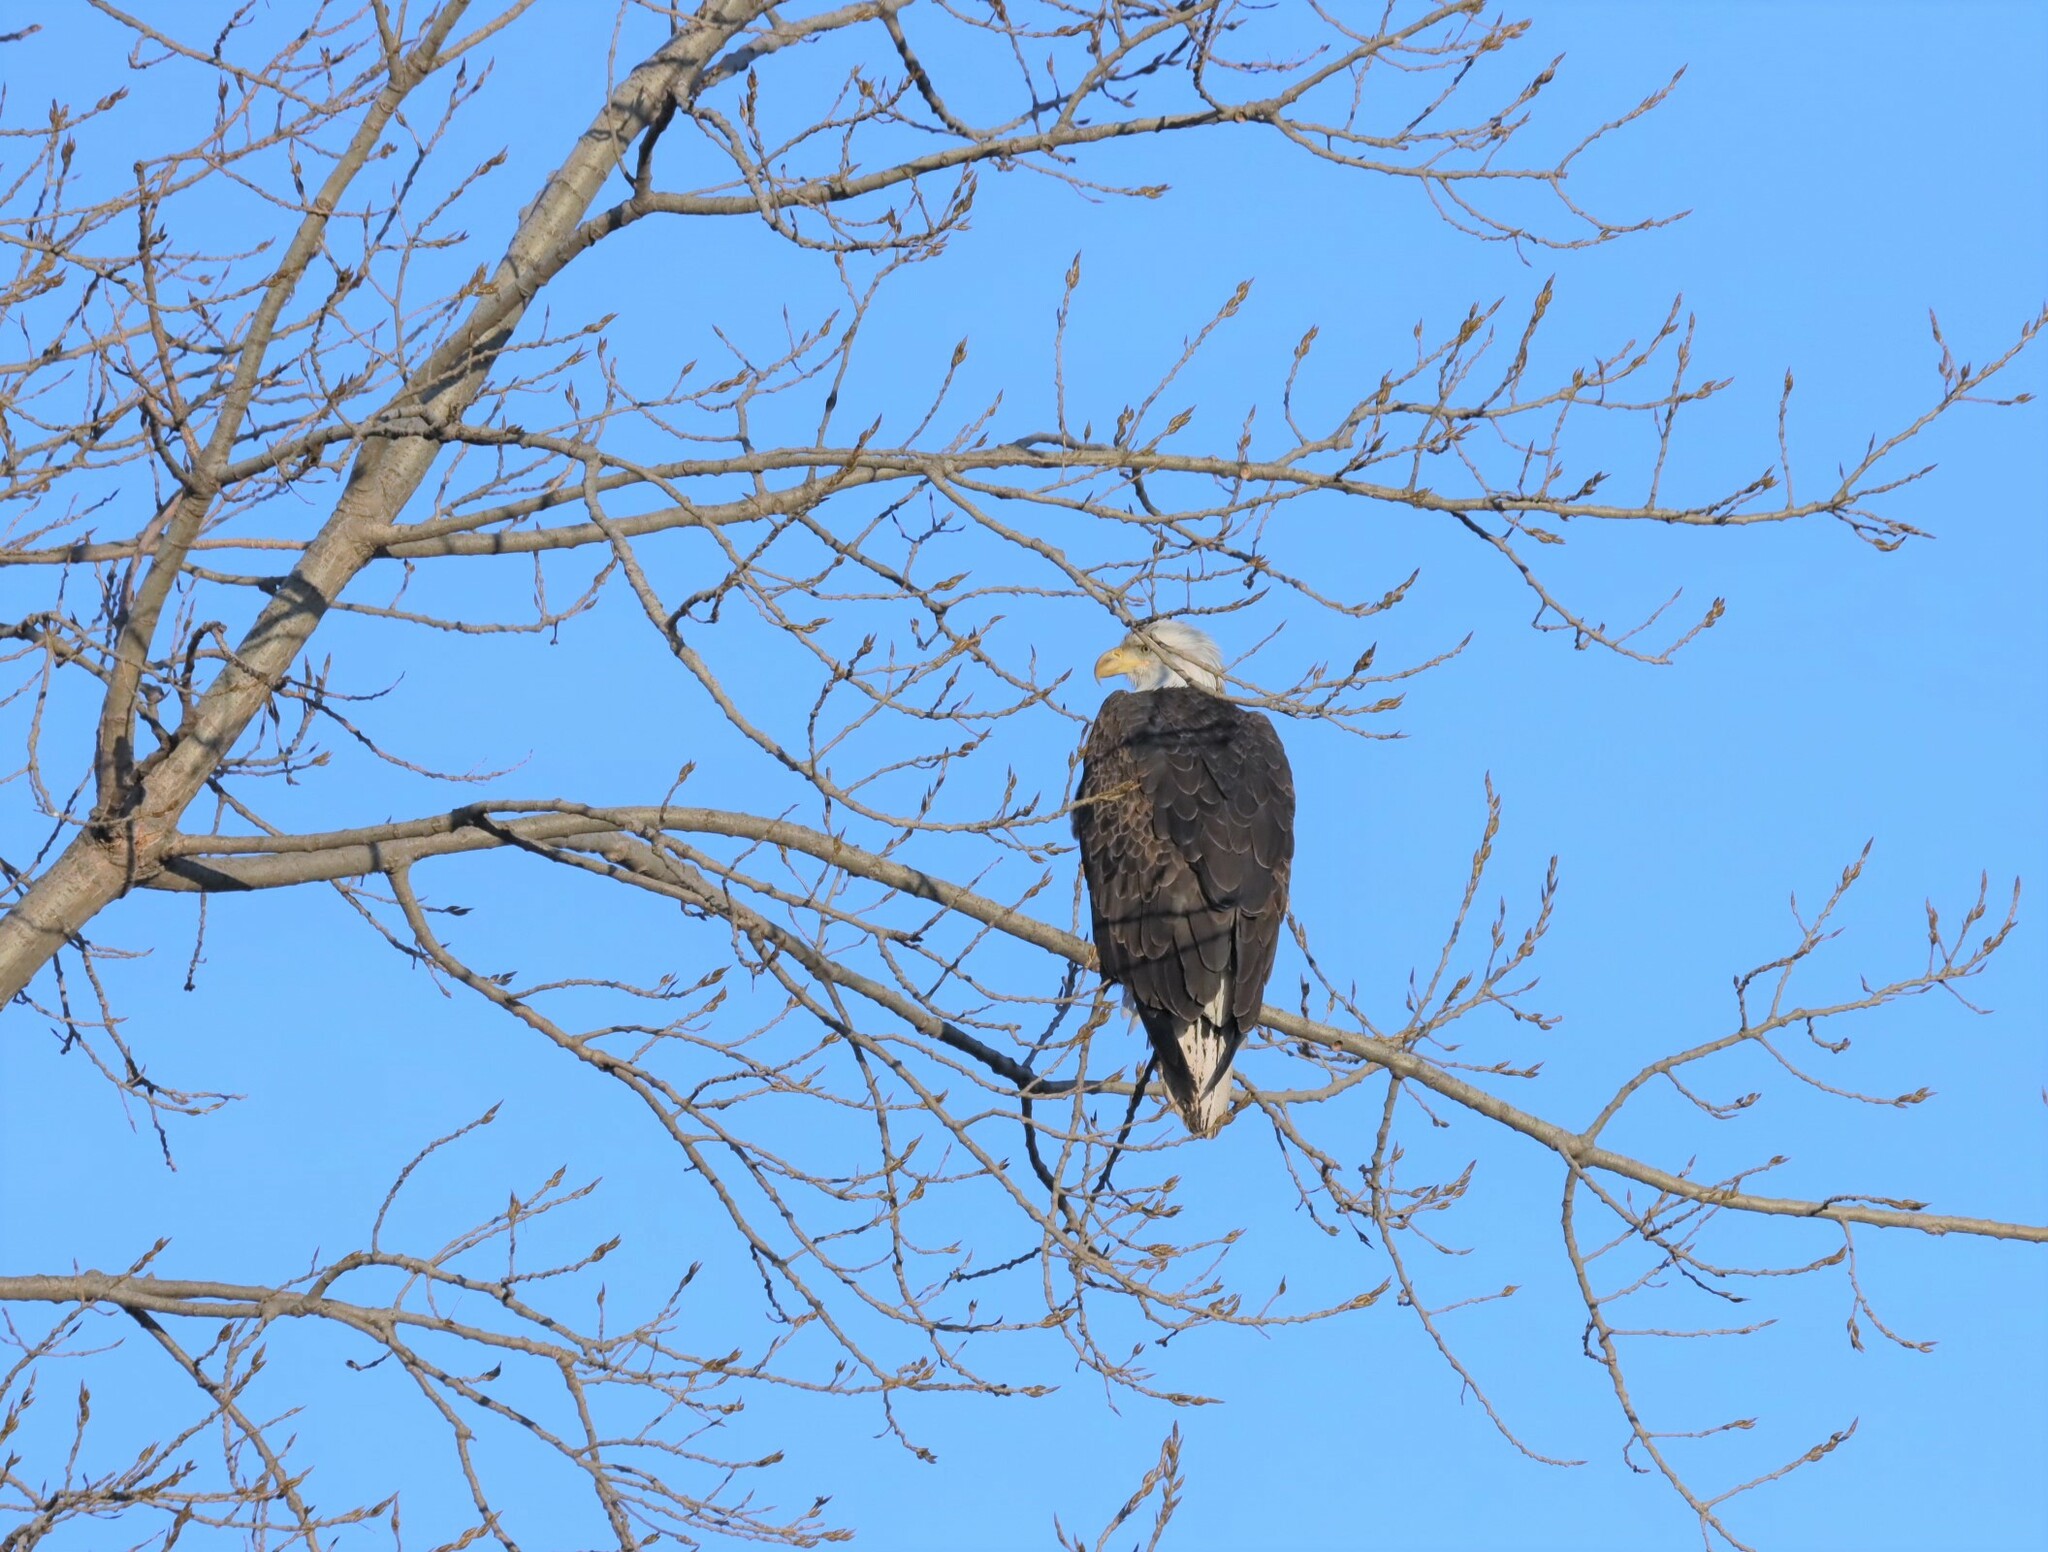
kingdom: Animalia
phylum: Chordata
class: Aves
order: Accipitriformes
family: Accipitridae
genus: Haliaeetus
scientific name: Haliaeetus leucocephalus
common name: Bald eagle
